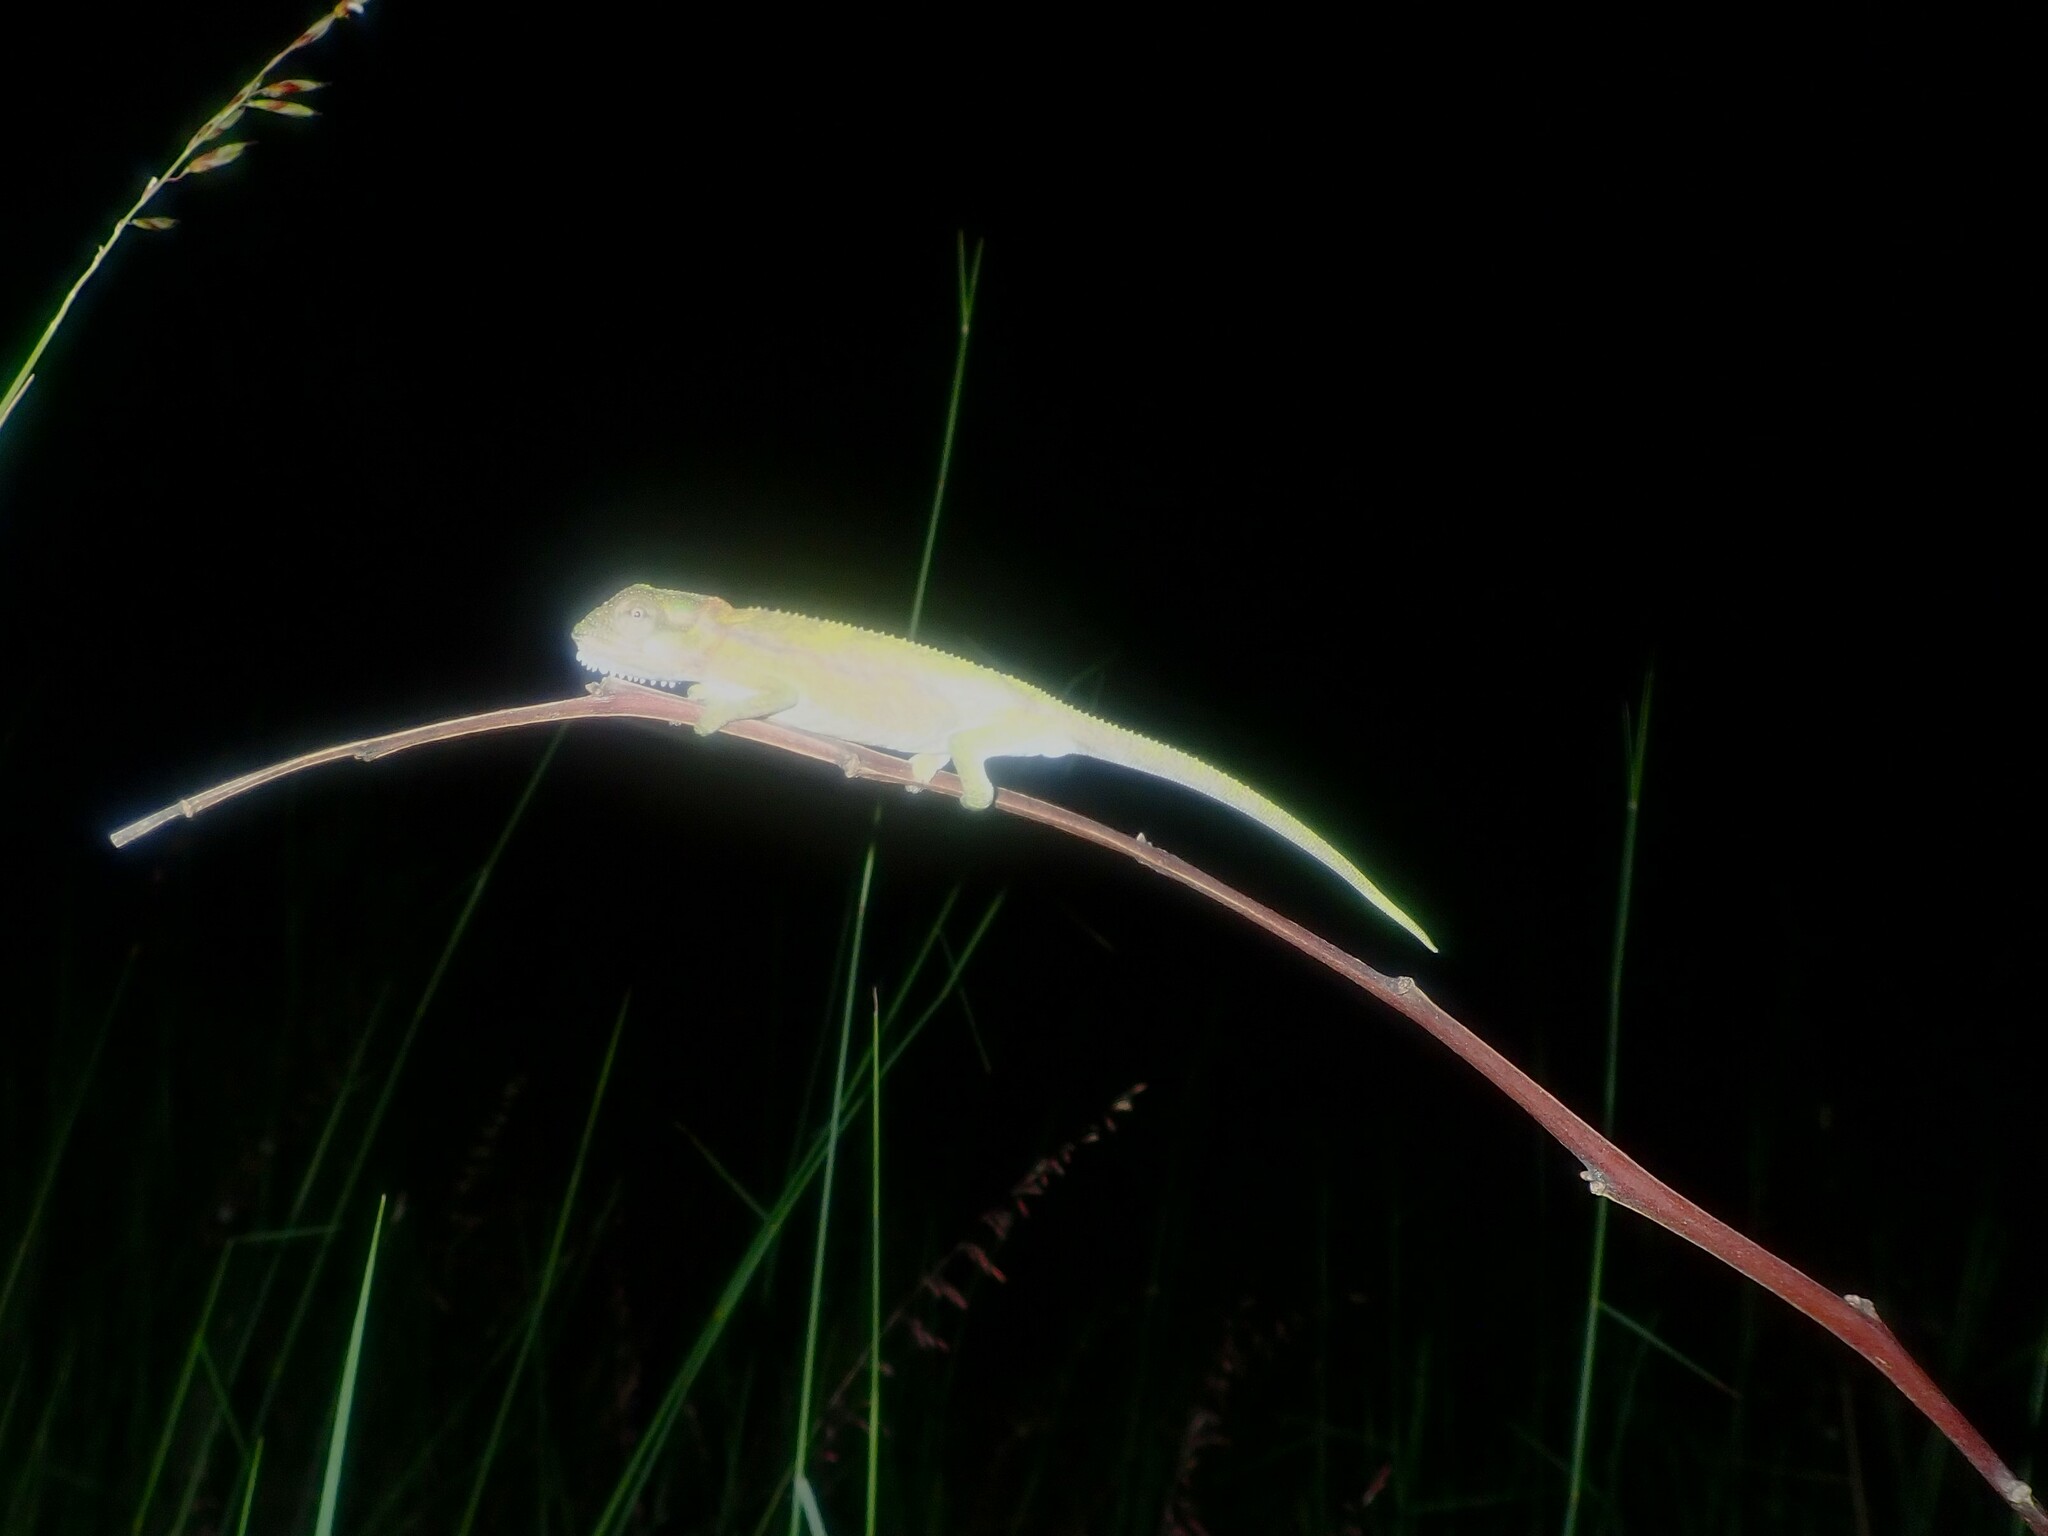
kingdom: Animalia
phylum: Chordata
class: Squamata
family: Chamaeleonidae
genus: Bradypodion
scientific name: Bradypodion pumilum
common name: Cape dwarf chameleon
